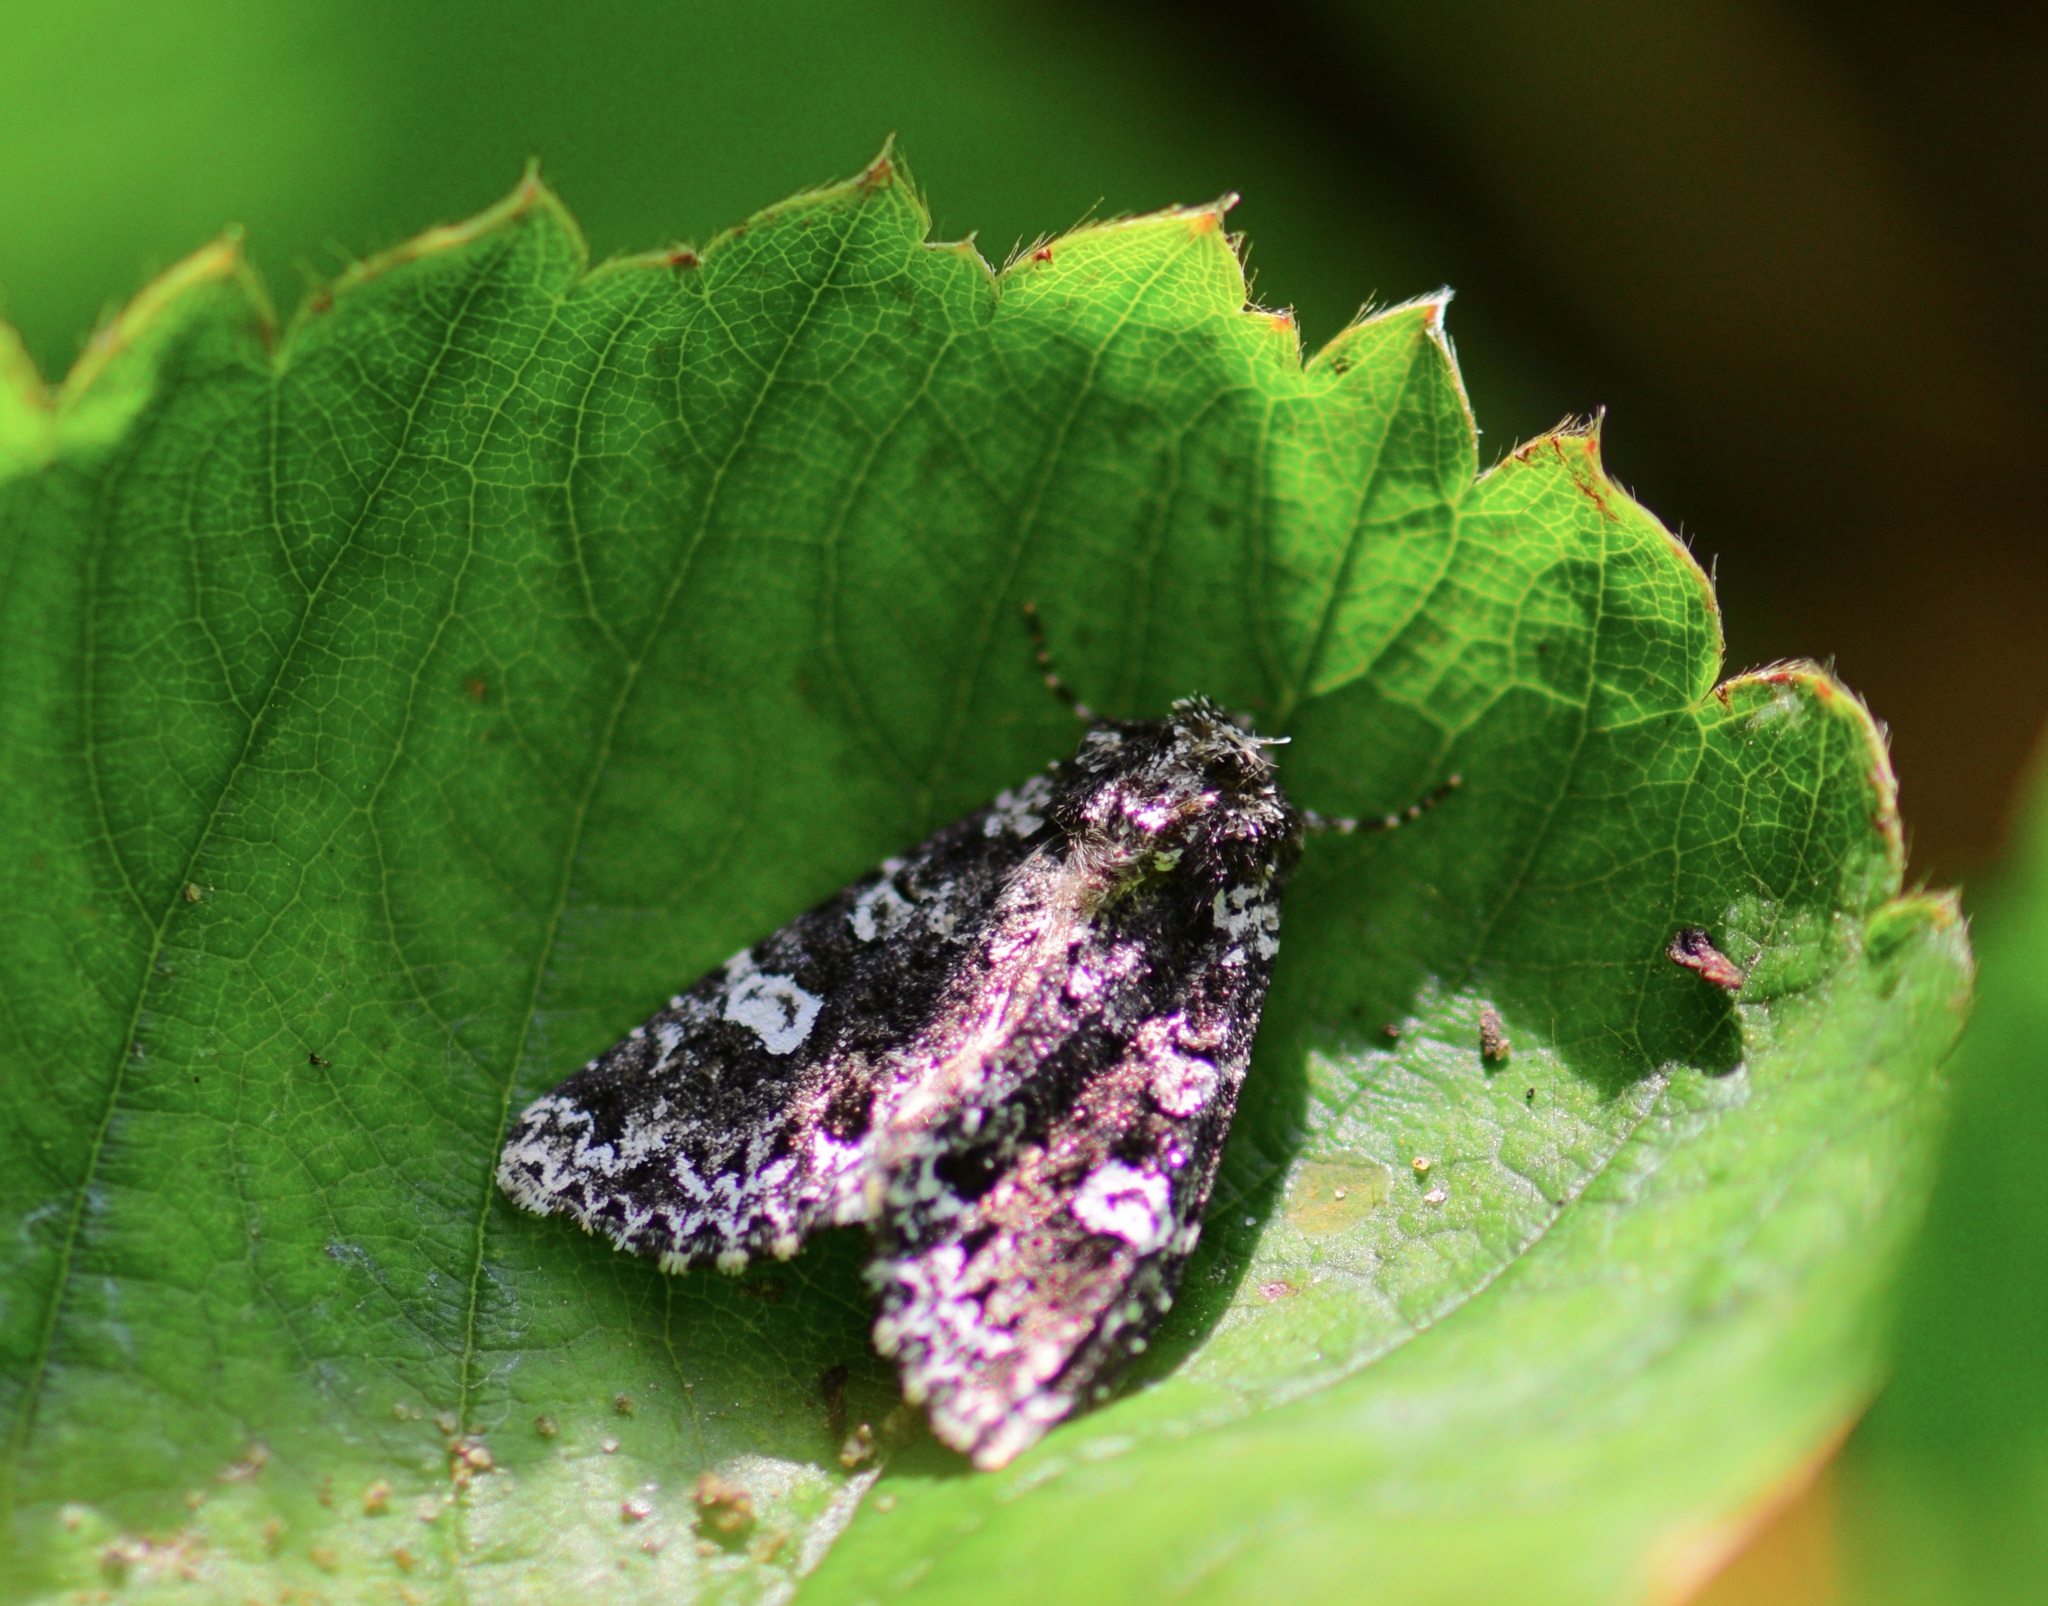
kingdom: Animalia
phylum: Arthropoda
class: Insecta
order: Lepidoptera
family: Noctuidae
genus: Melanchra
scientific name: Melanchra adjuncta
